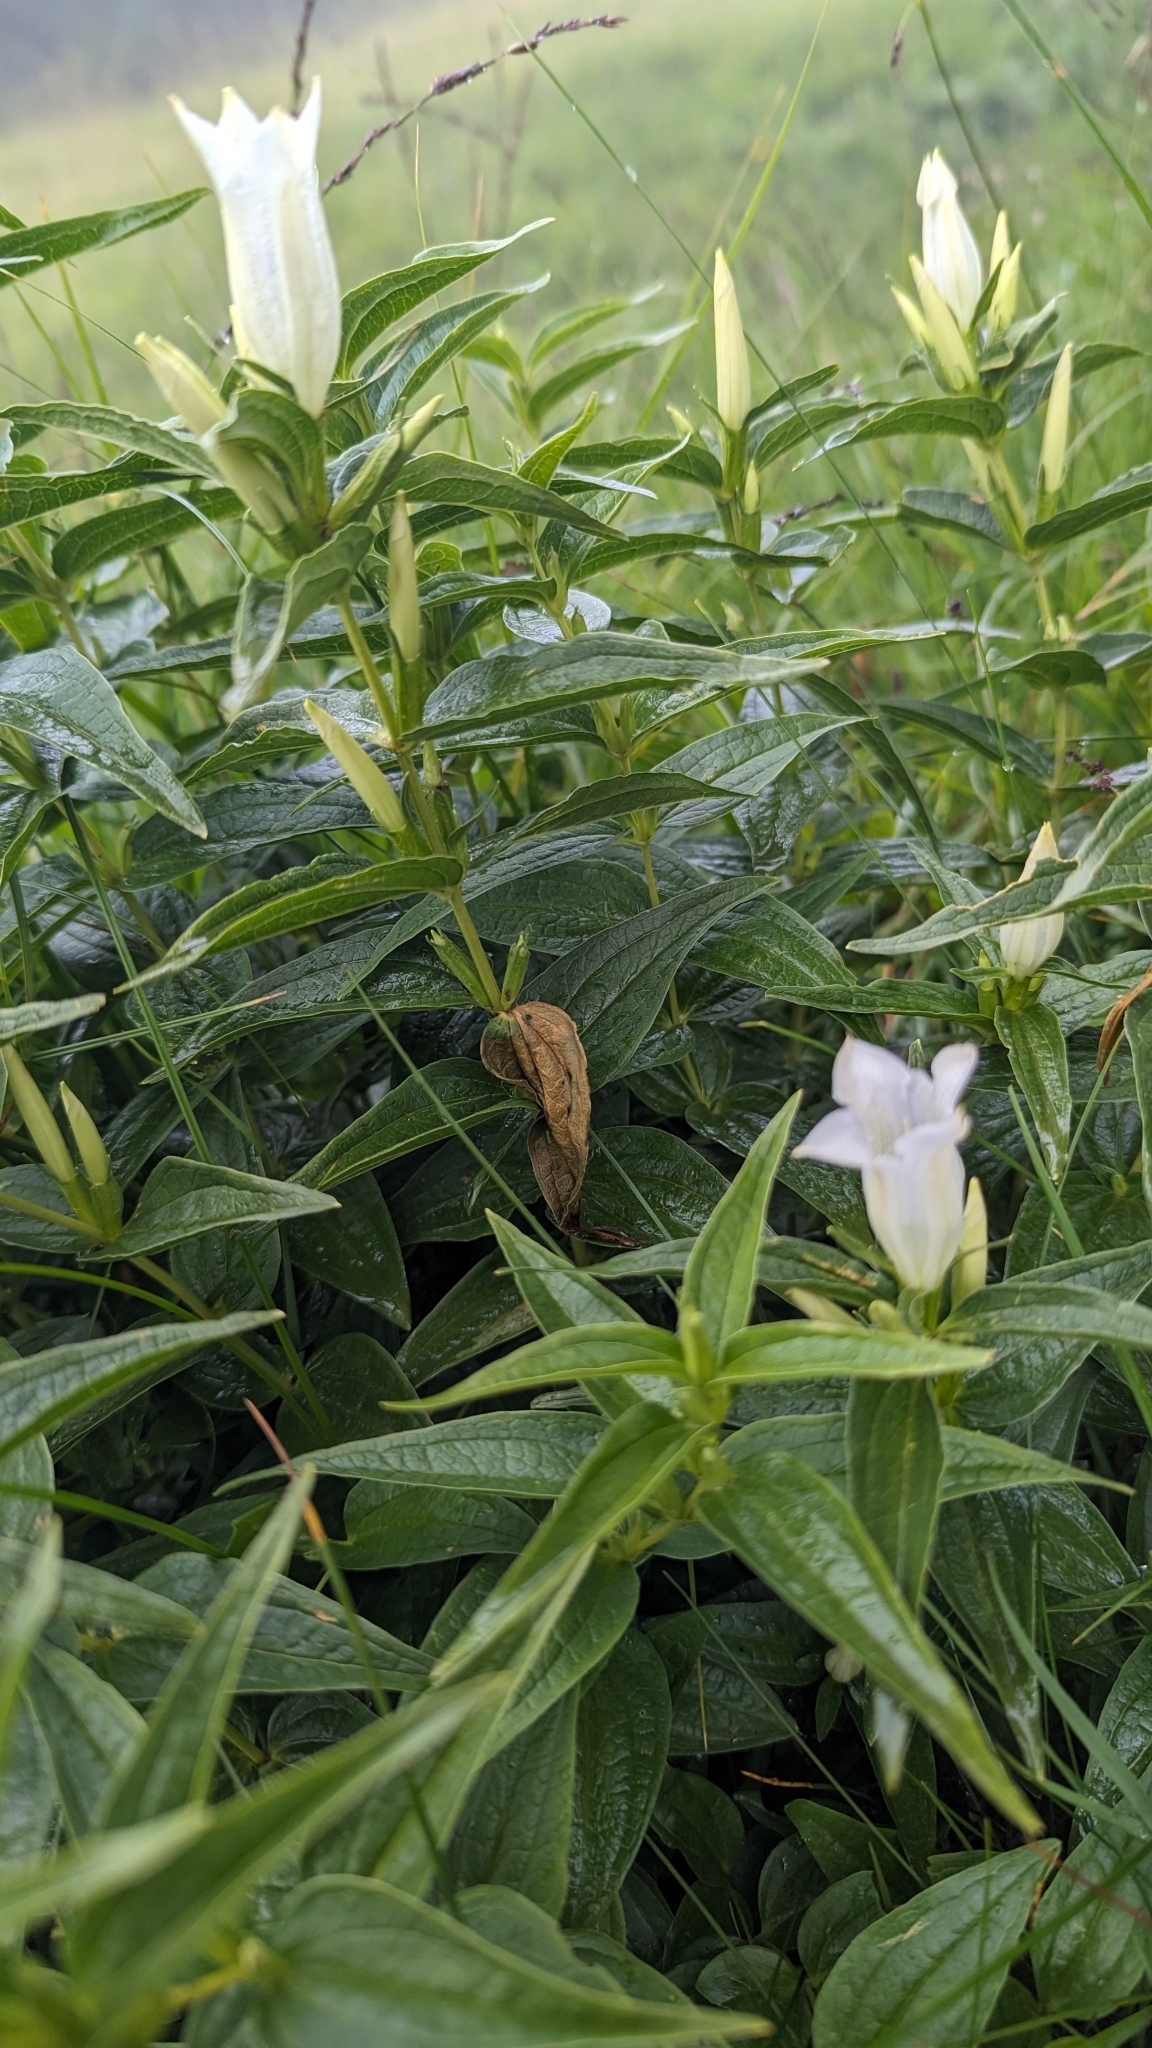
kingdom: Plantae
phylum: Tracheophyta
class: Magnoliopsida
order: Gentianales
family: Gentianaceae
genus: Gentiana
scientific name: Gentiana asclepiadea
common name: Willow gentian
